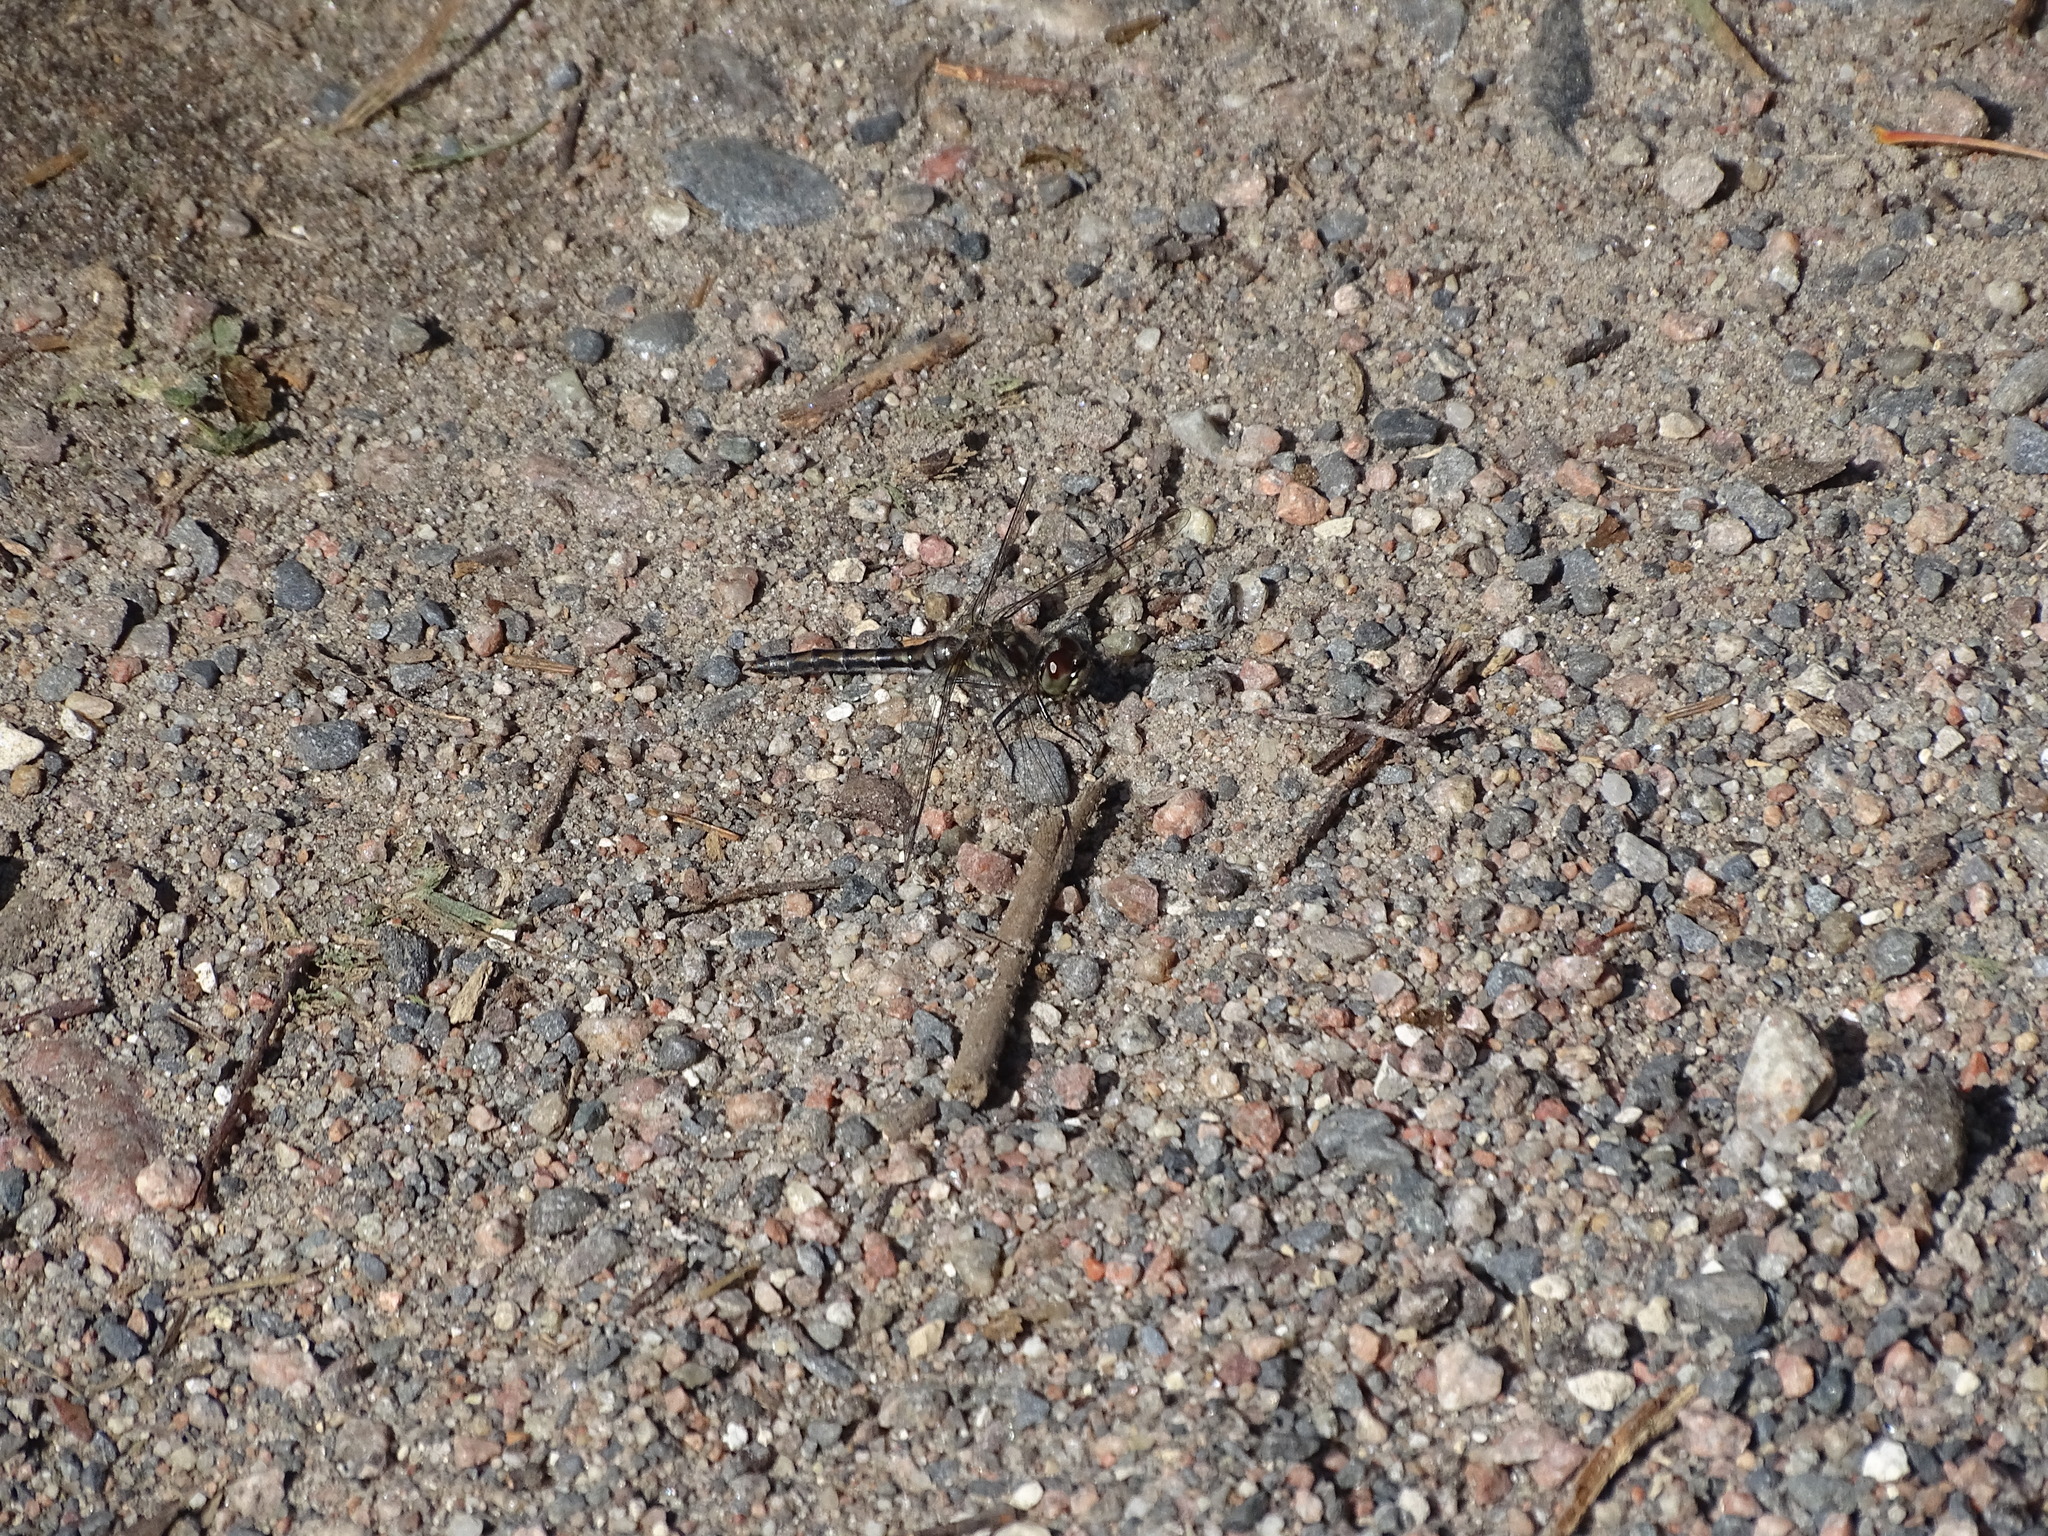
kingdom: Animalia
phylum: Arthropoda
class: Insecta
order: Odonata
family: Libellulidae
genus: Sympetrum
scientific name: Sympetrum danae
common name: Black darter
